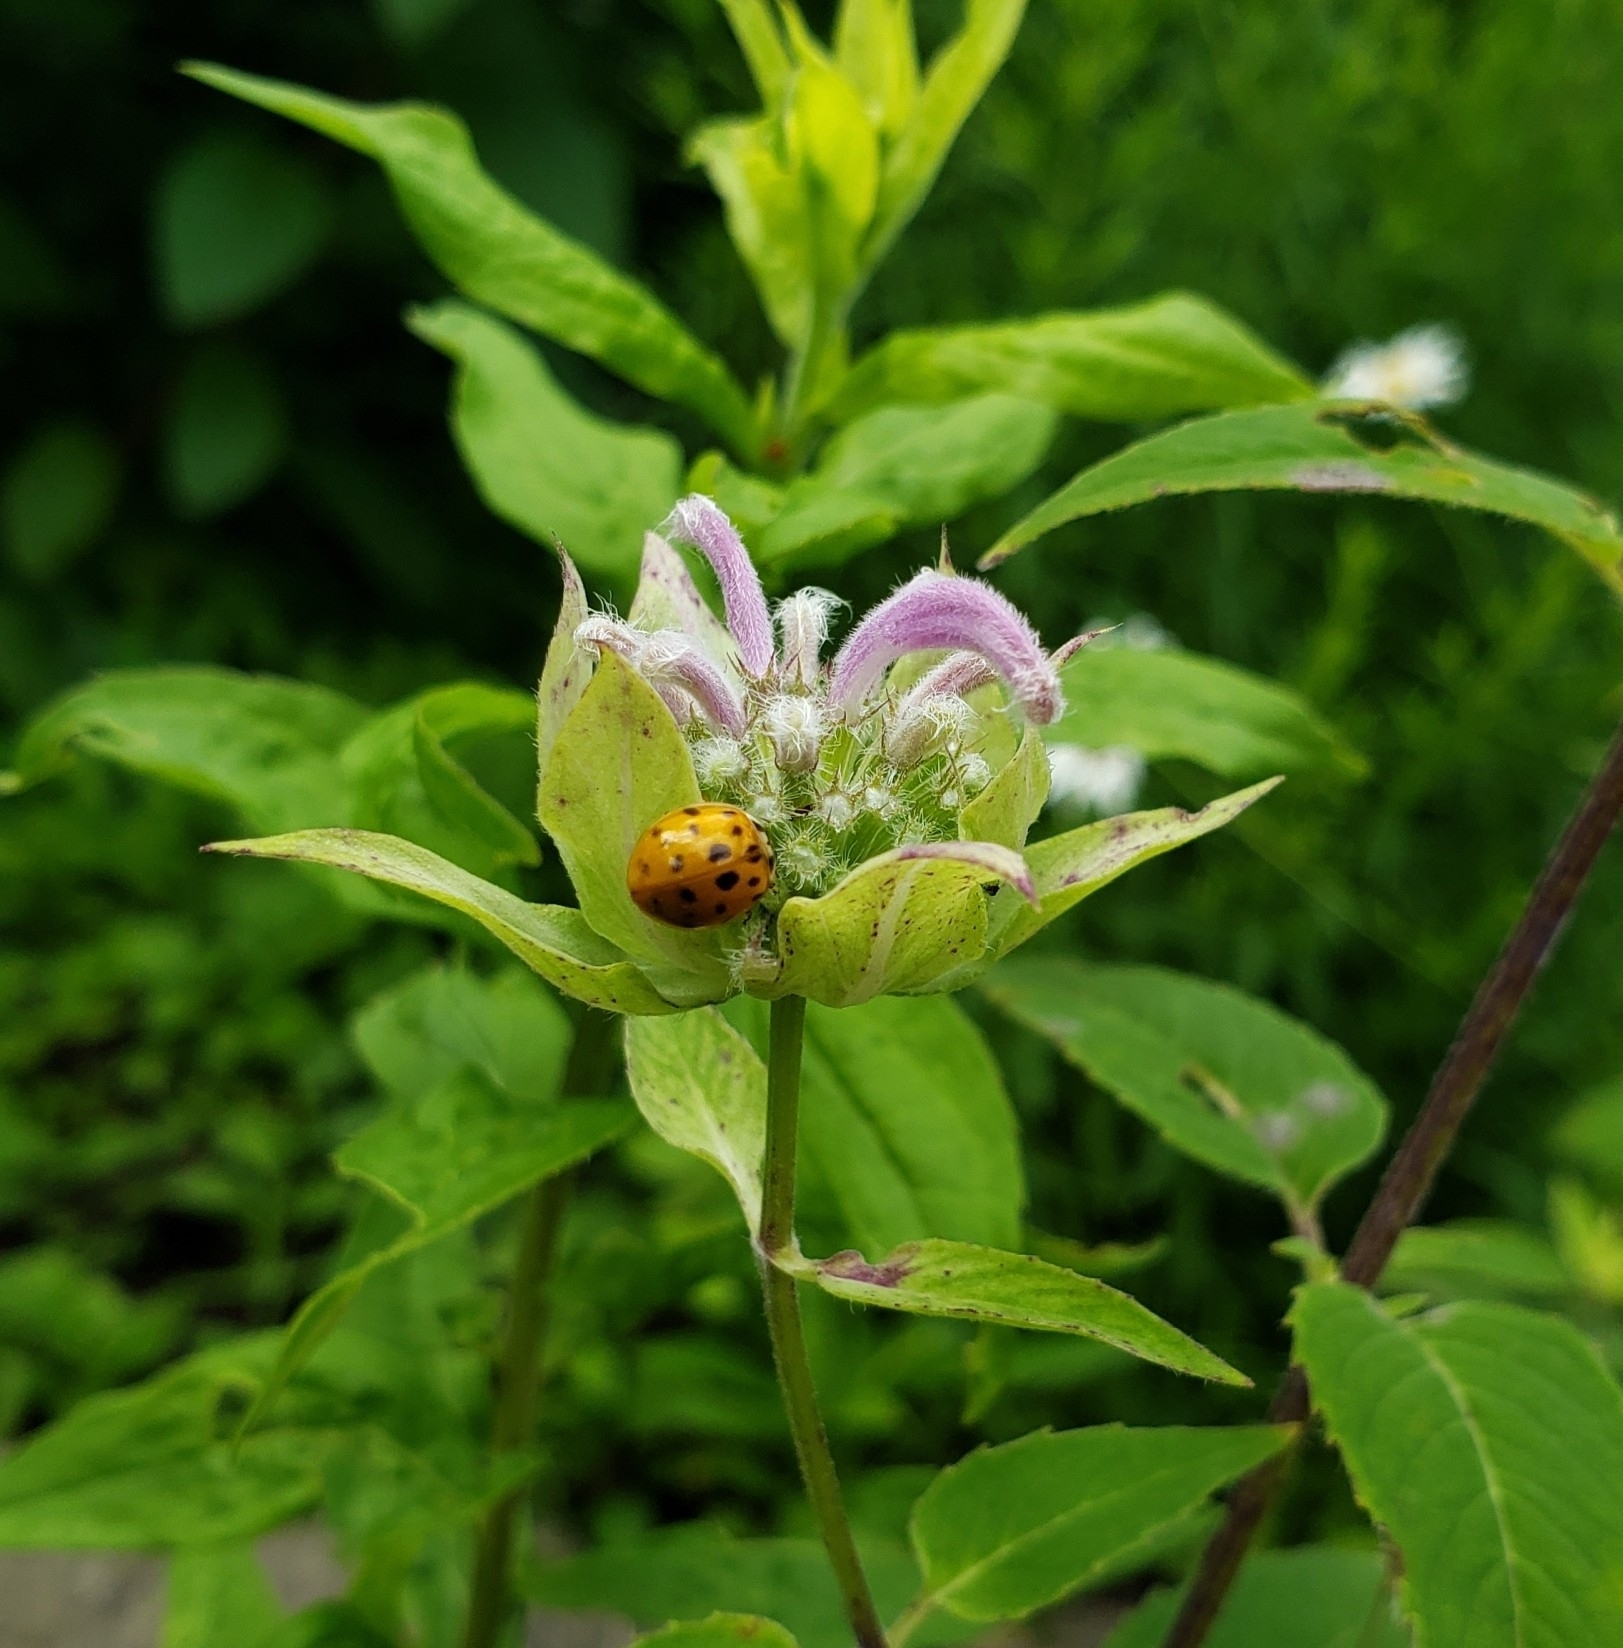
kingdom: Animalia
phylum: Arthropoda
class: Insecta
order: Coleoptera
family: Coccinellidae
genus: Harmonia
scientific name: Harmonia axyridis
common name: Harlequin ladybird
